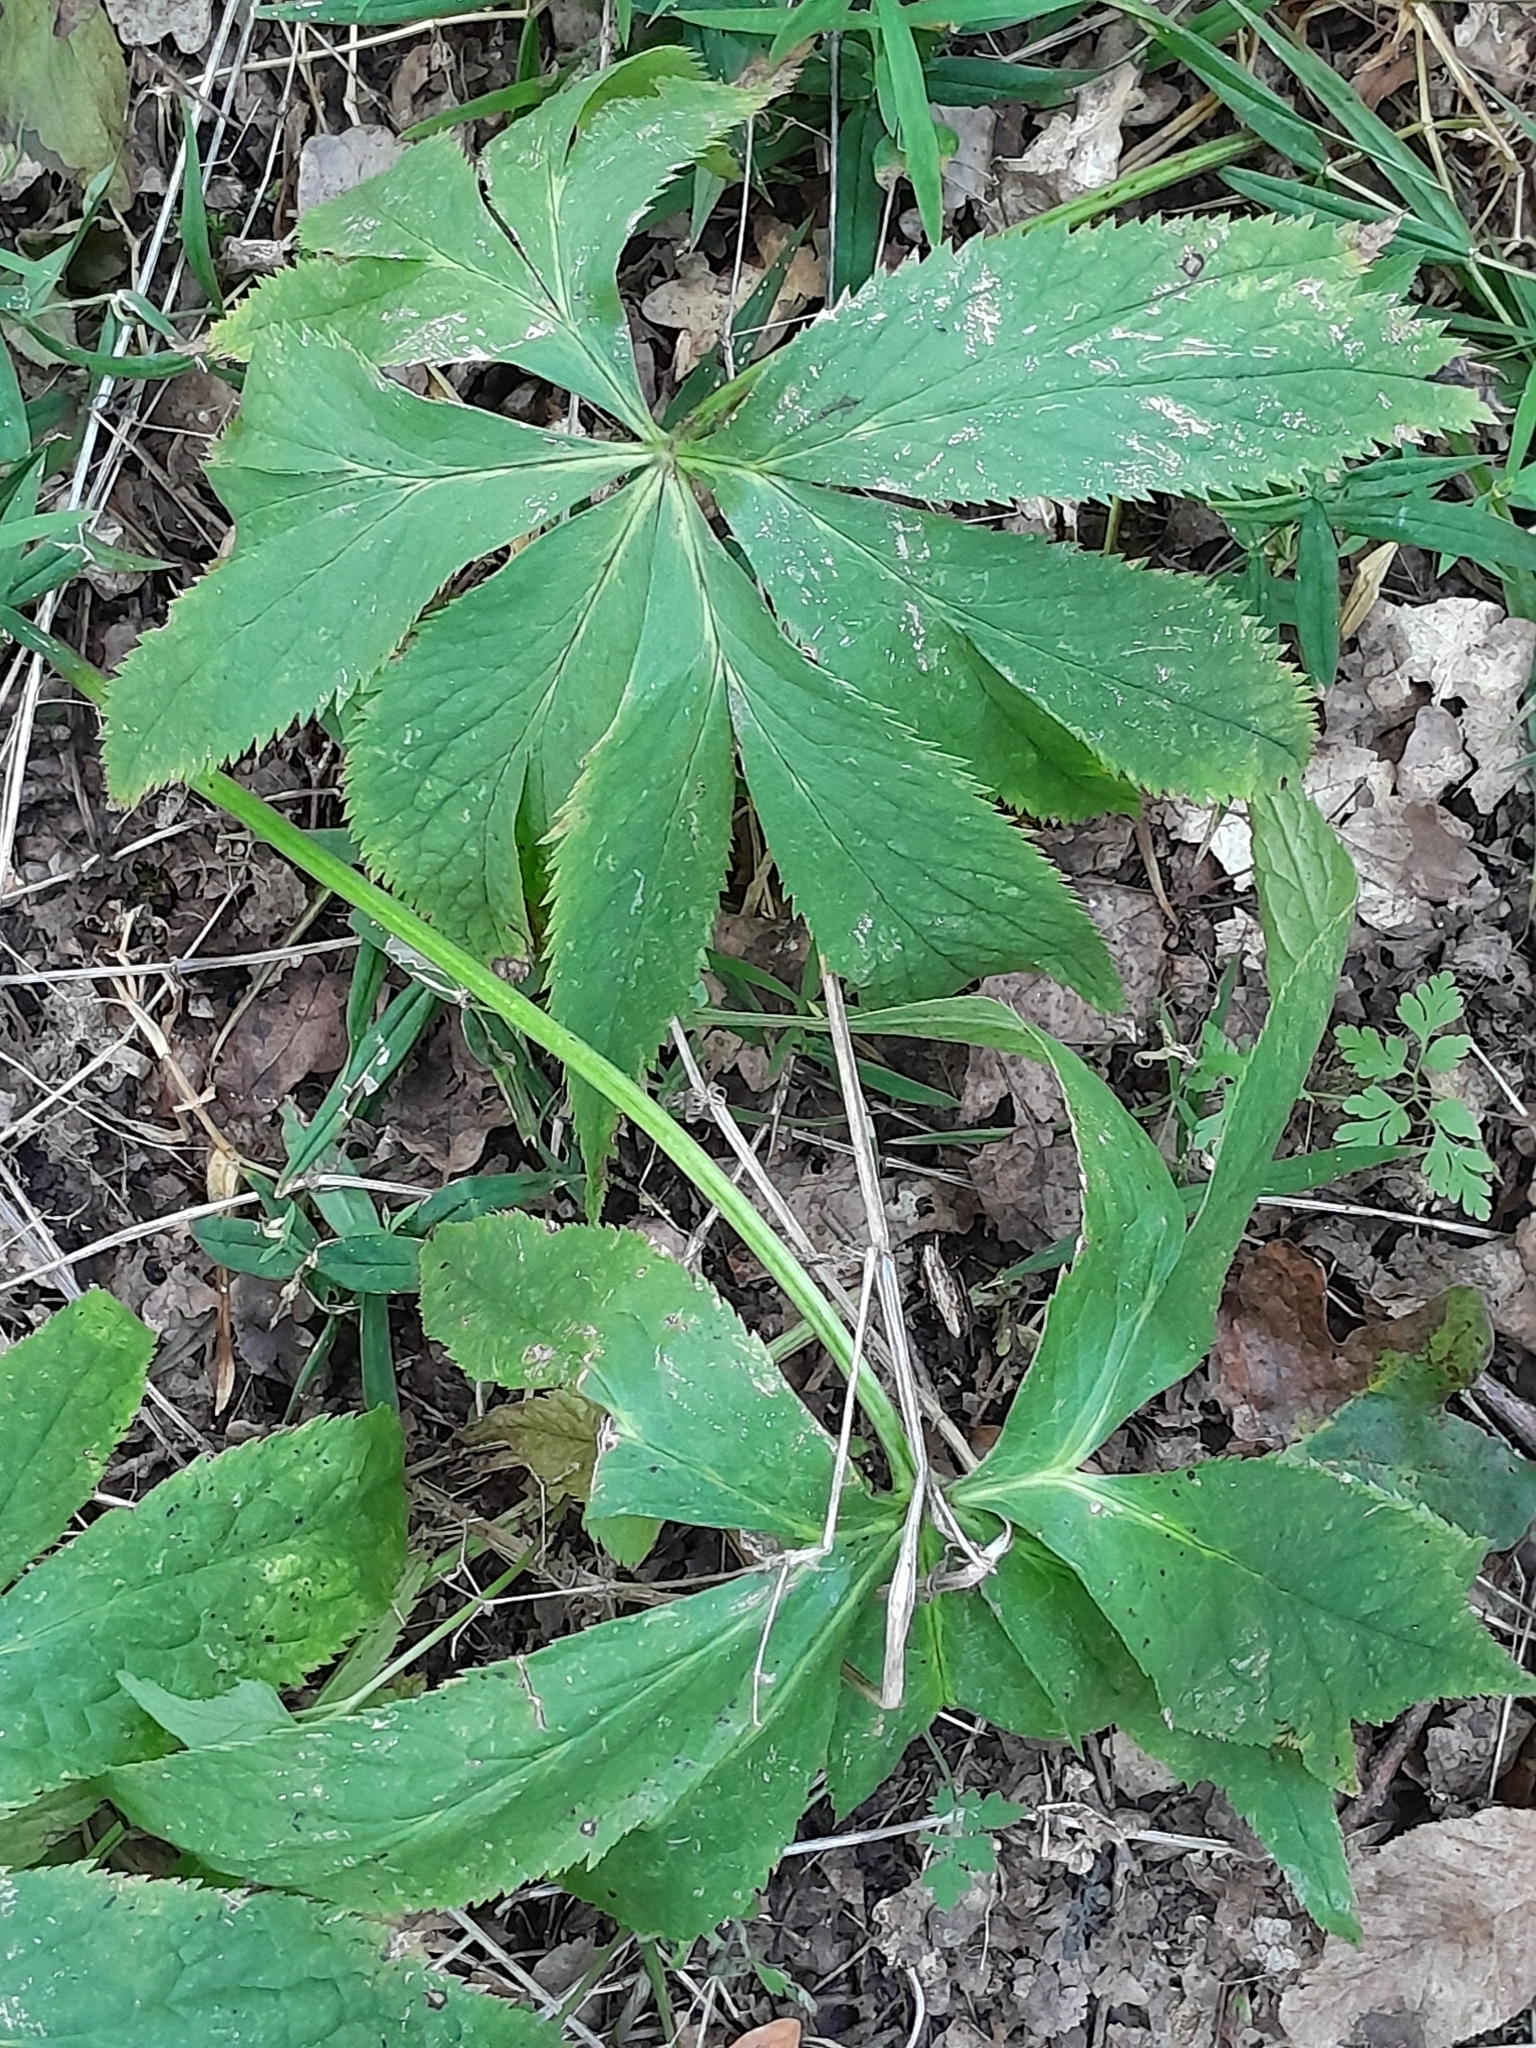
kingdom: Plantae
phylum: Tracheophyta
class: Magnoliopsida
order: Ranunculales
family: Ranunculaceae
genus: Helleborus
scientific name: Helleborus purpurascens
